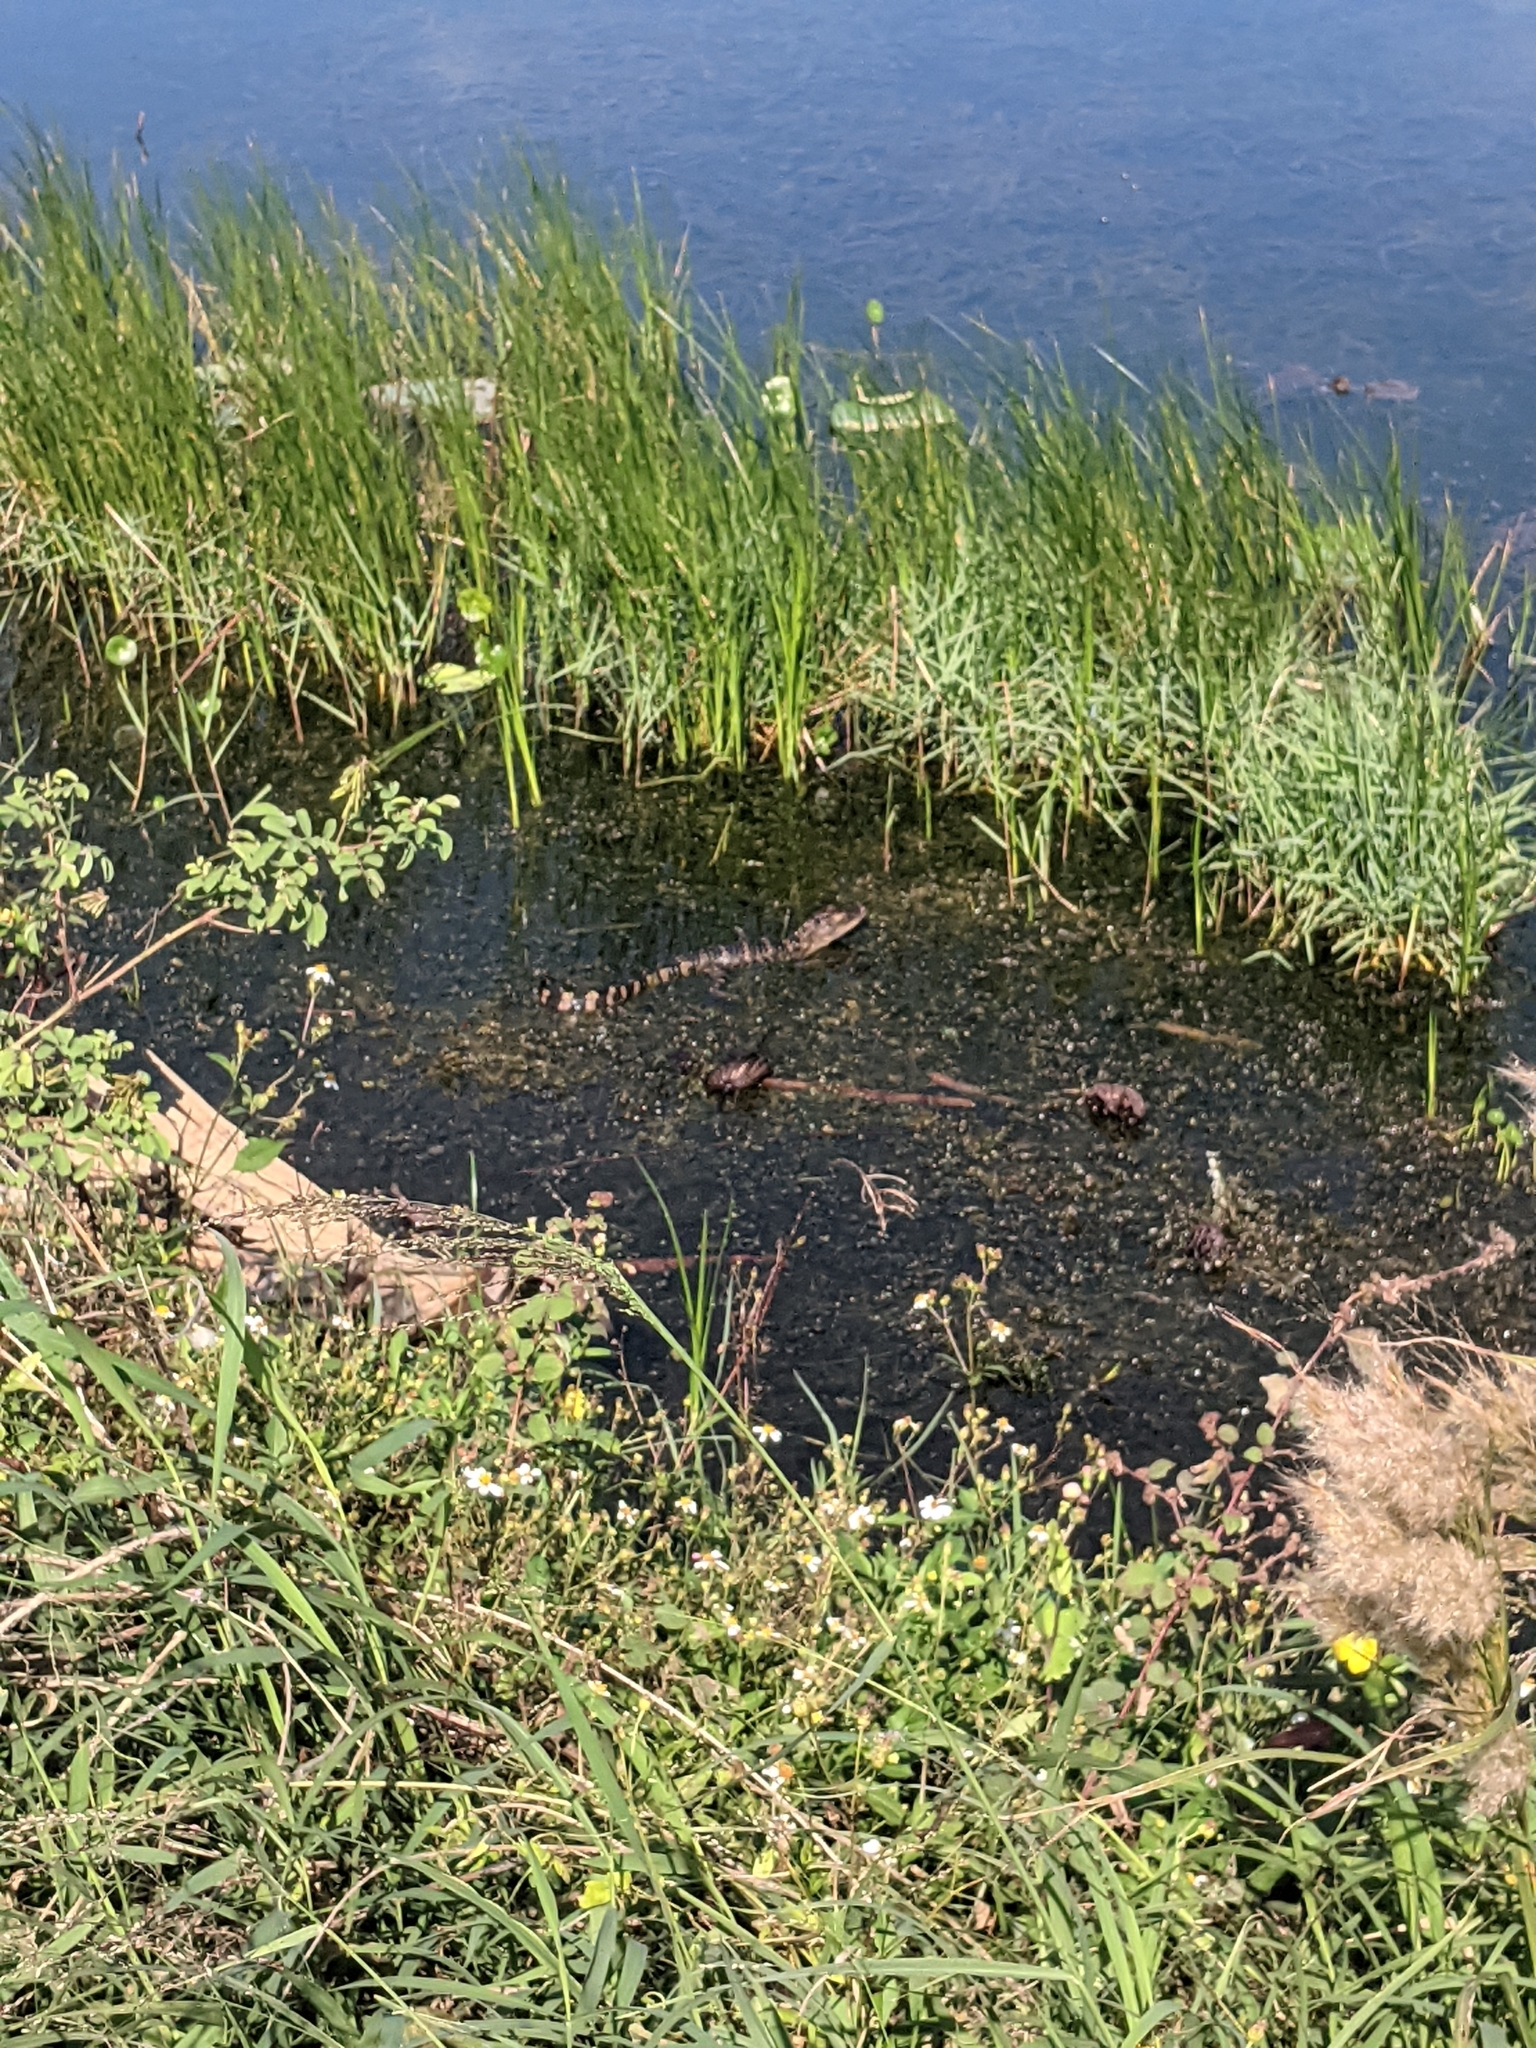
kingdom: Animalia
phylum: Chordata
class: Crocodylia
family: Alligatoridae
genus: Alligator
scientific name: Alligator mississippiensis
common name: American alligator
